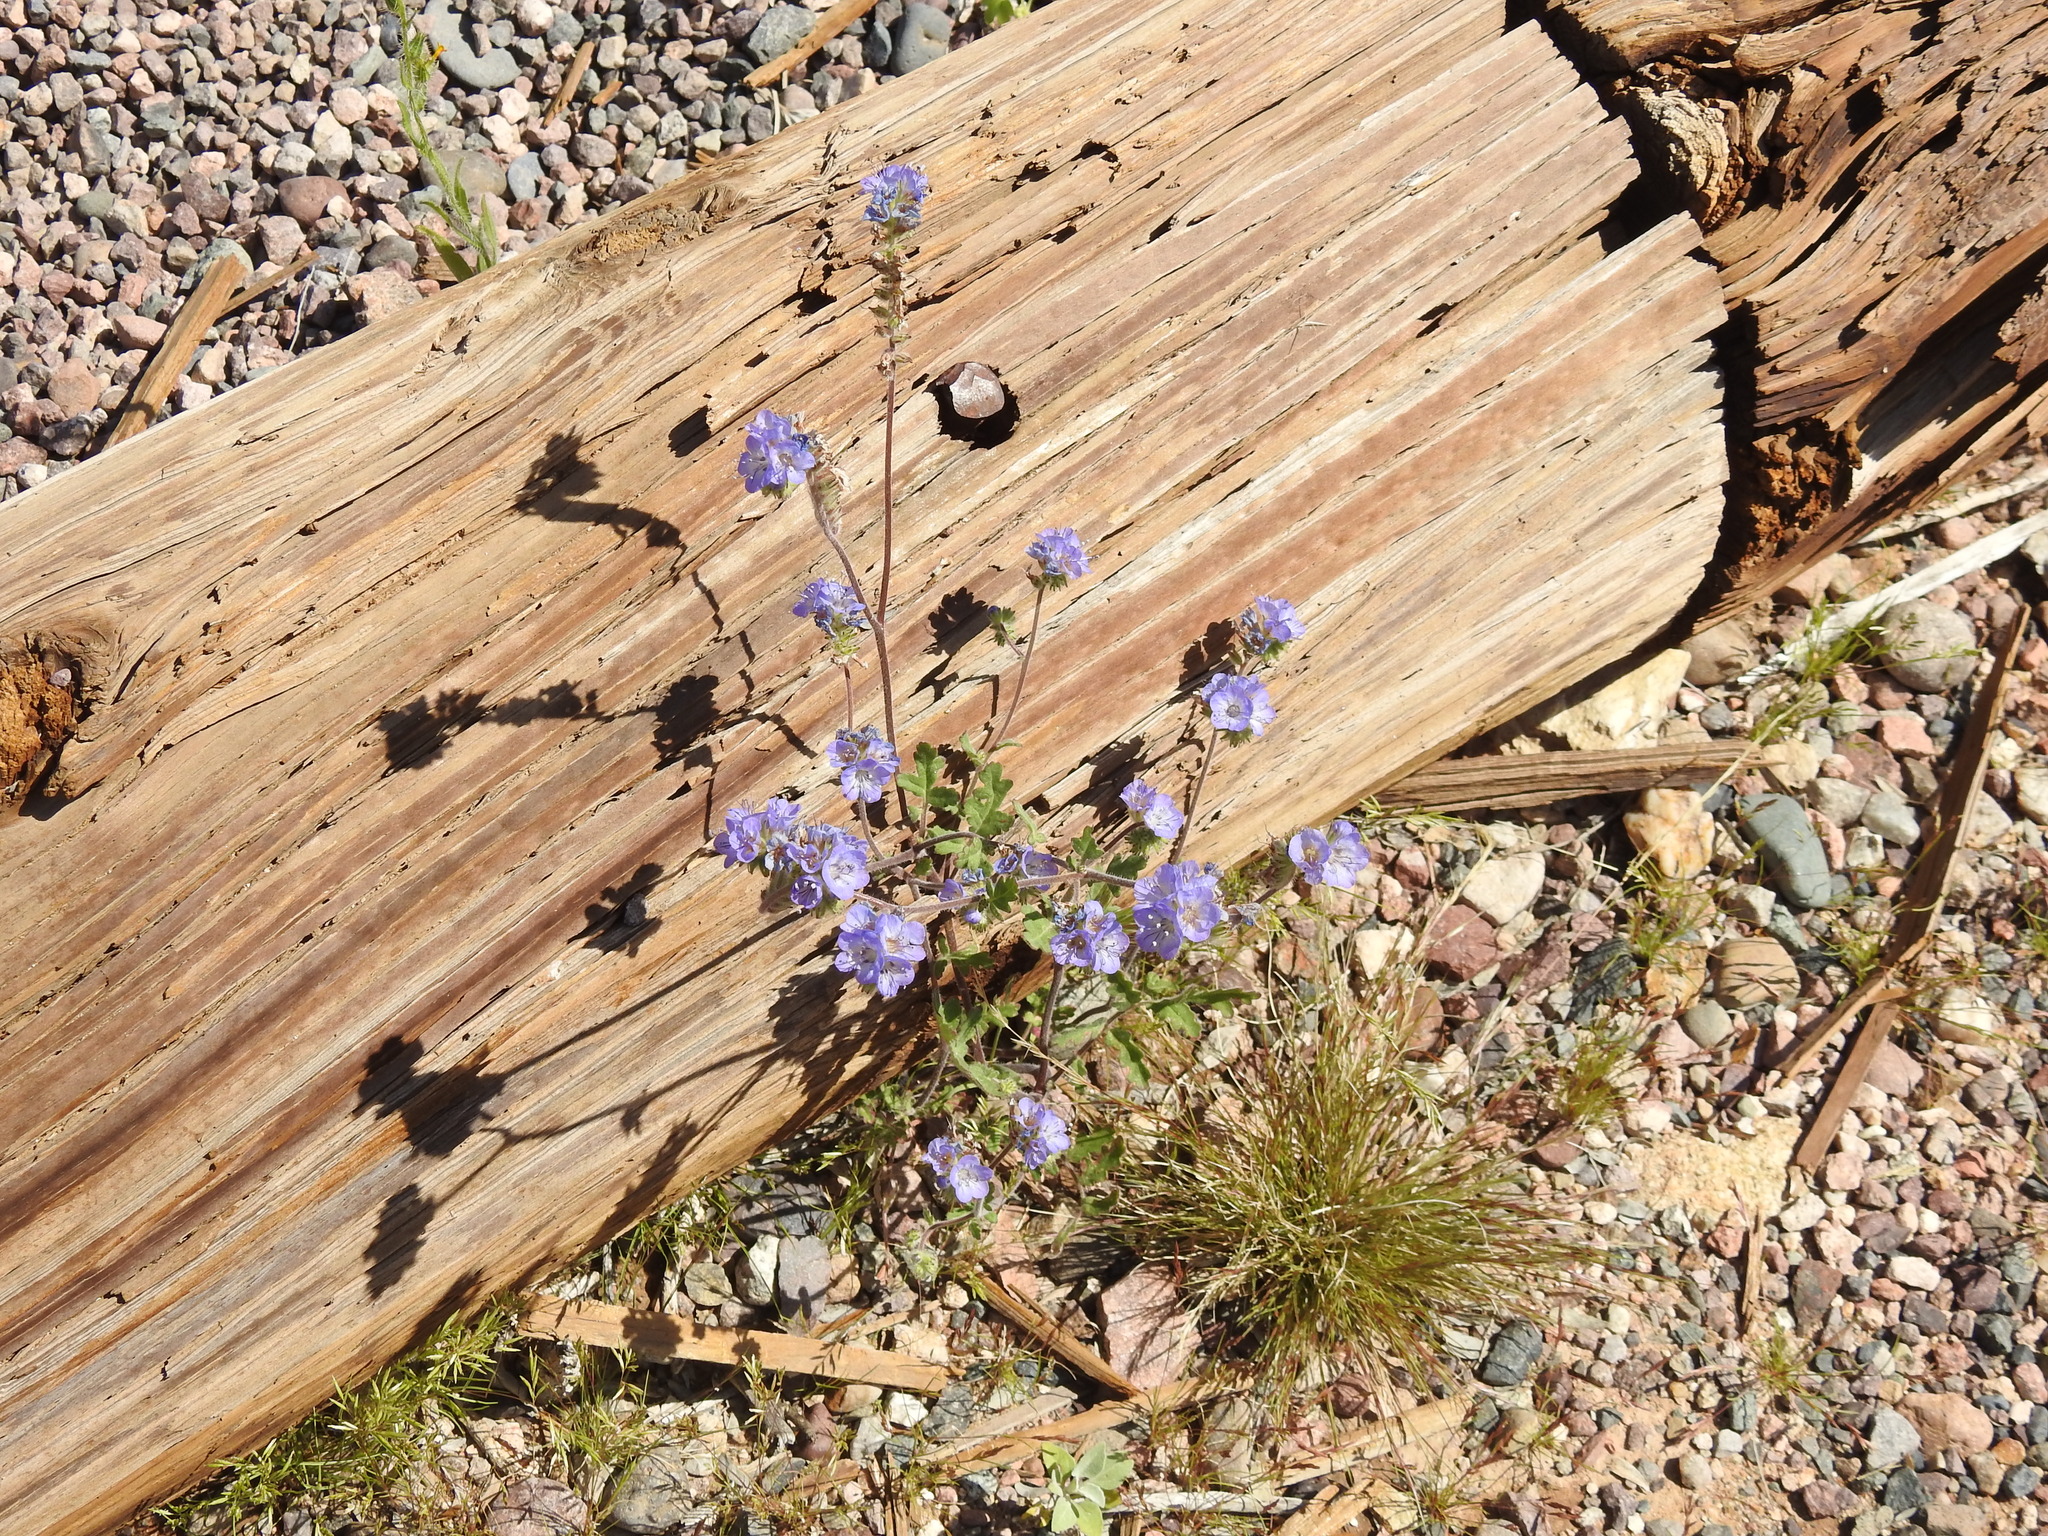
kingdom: Plantae
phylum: Tracheophyta
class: Magnoliopsida
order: Boraginales
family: Hydrophyllaceae
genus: Phacelia
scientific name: Phacelia distans
